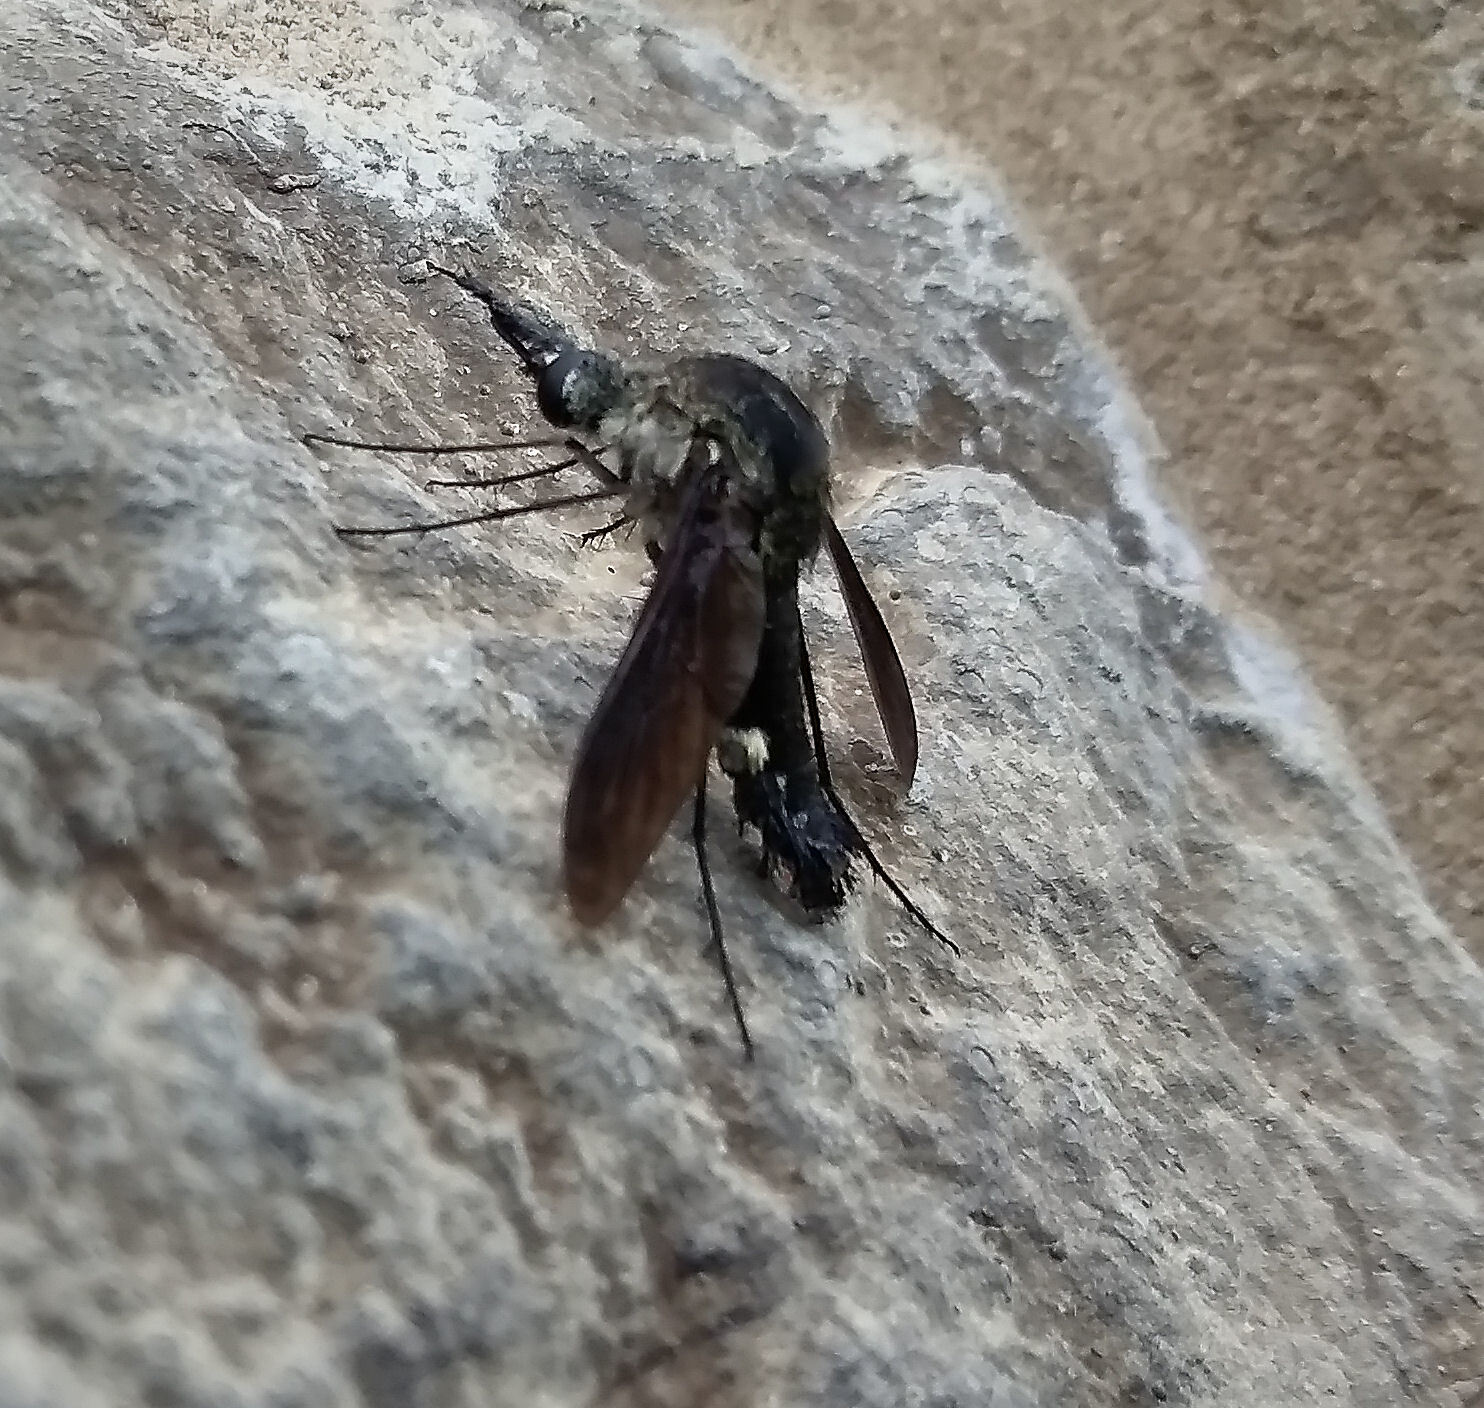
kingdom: Animalia
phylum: Arthropoda
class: Insecta
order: Diptera
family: Bombyliidae
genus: Lepidophora
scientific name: Lepidophora lepidocera
